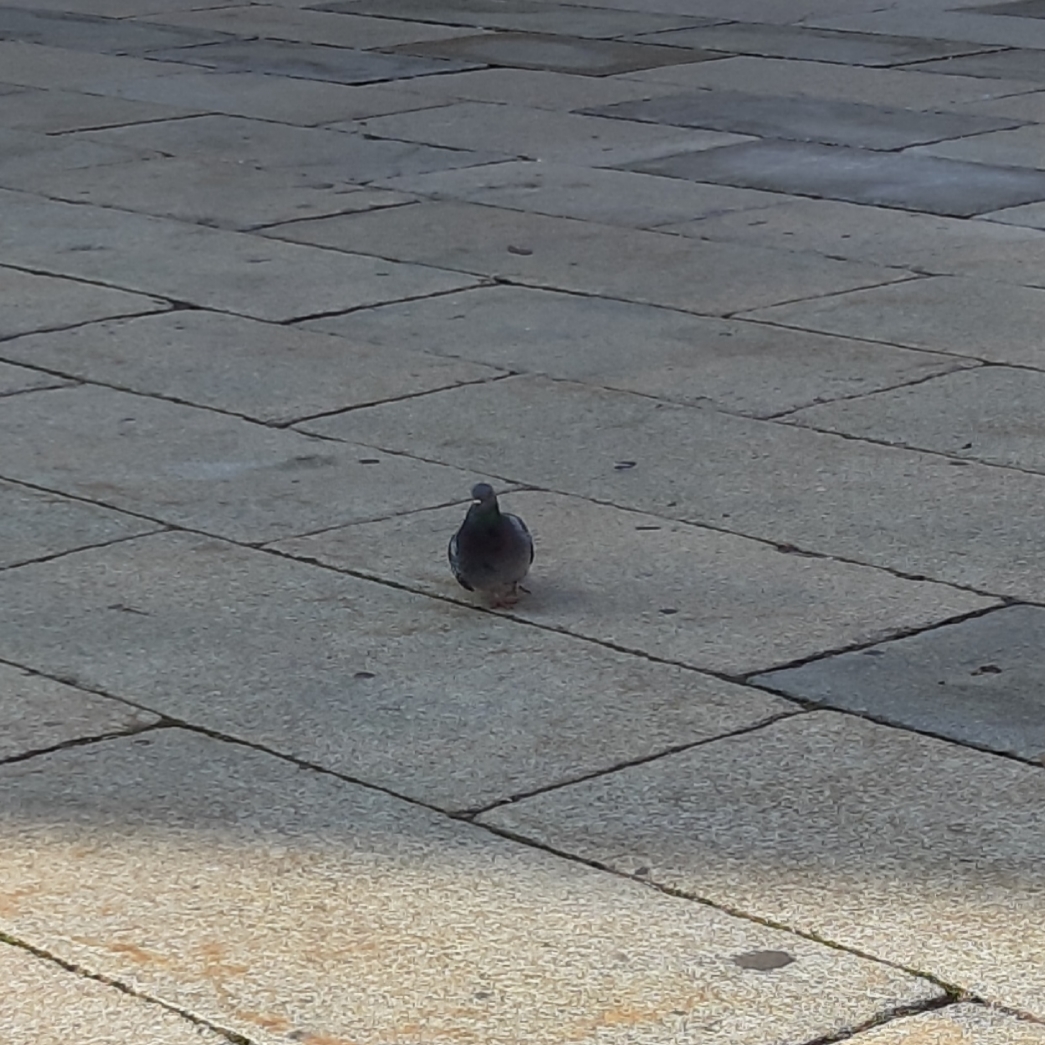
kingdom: Animalia
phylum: Chordata
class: Aves
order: Columbiformes
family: Columbidae
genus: Columba
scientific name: Columba livia
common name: Rock pigeon
